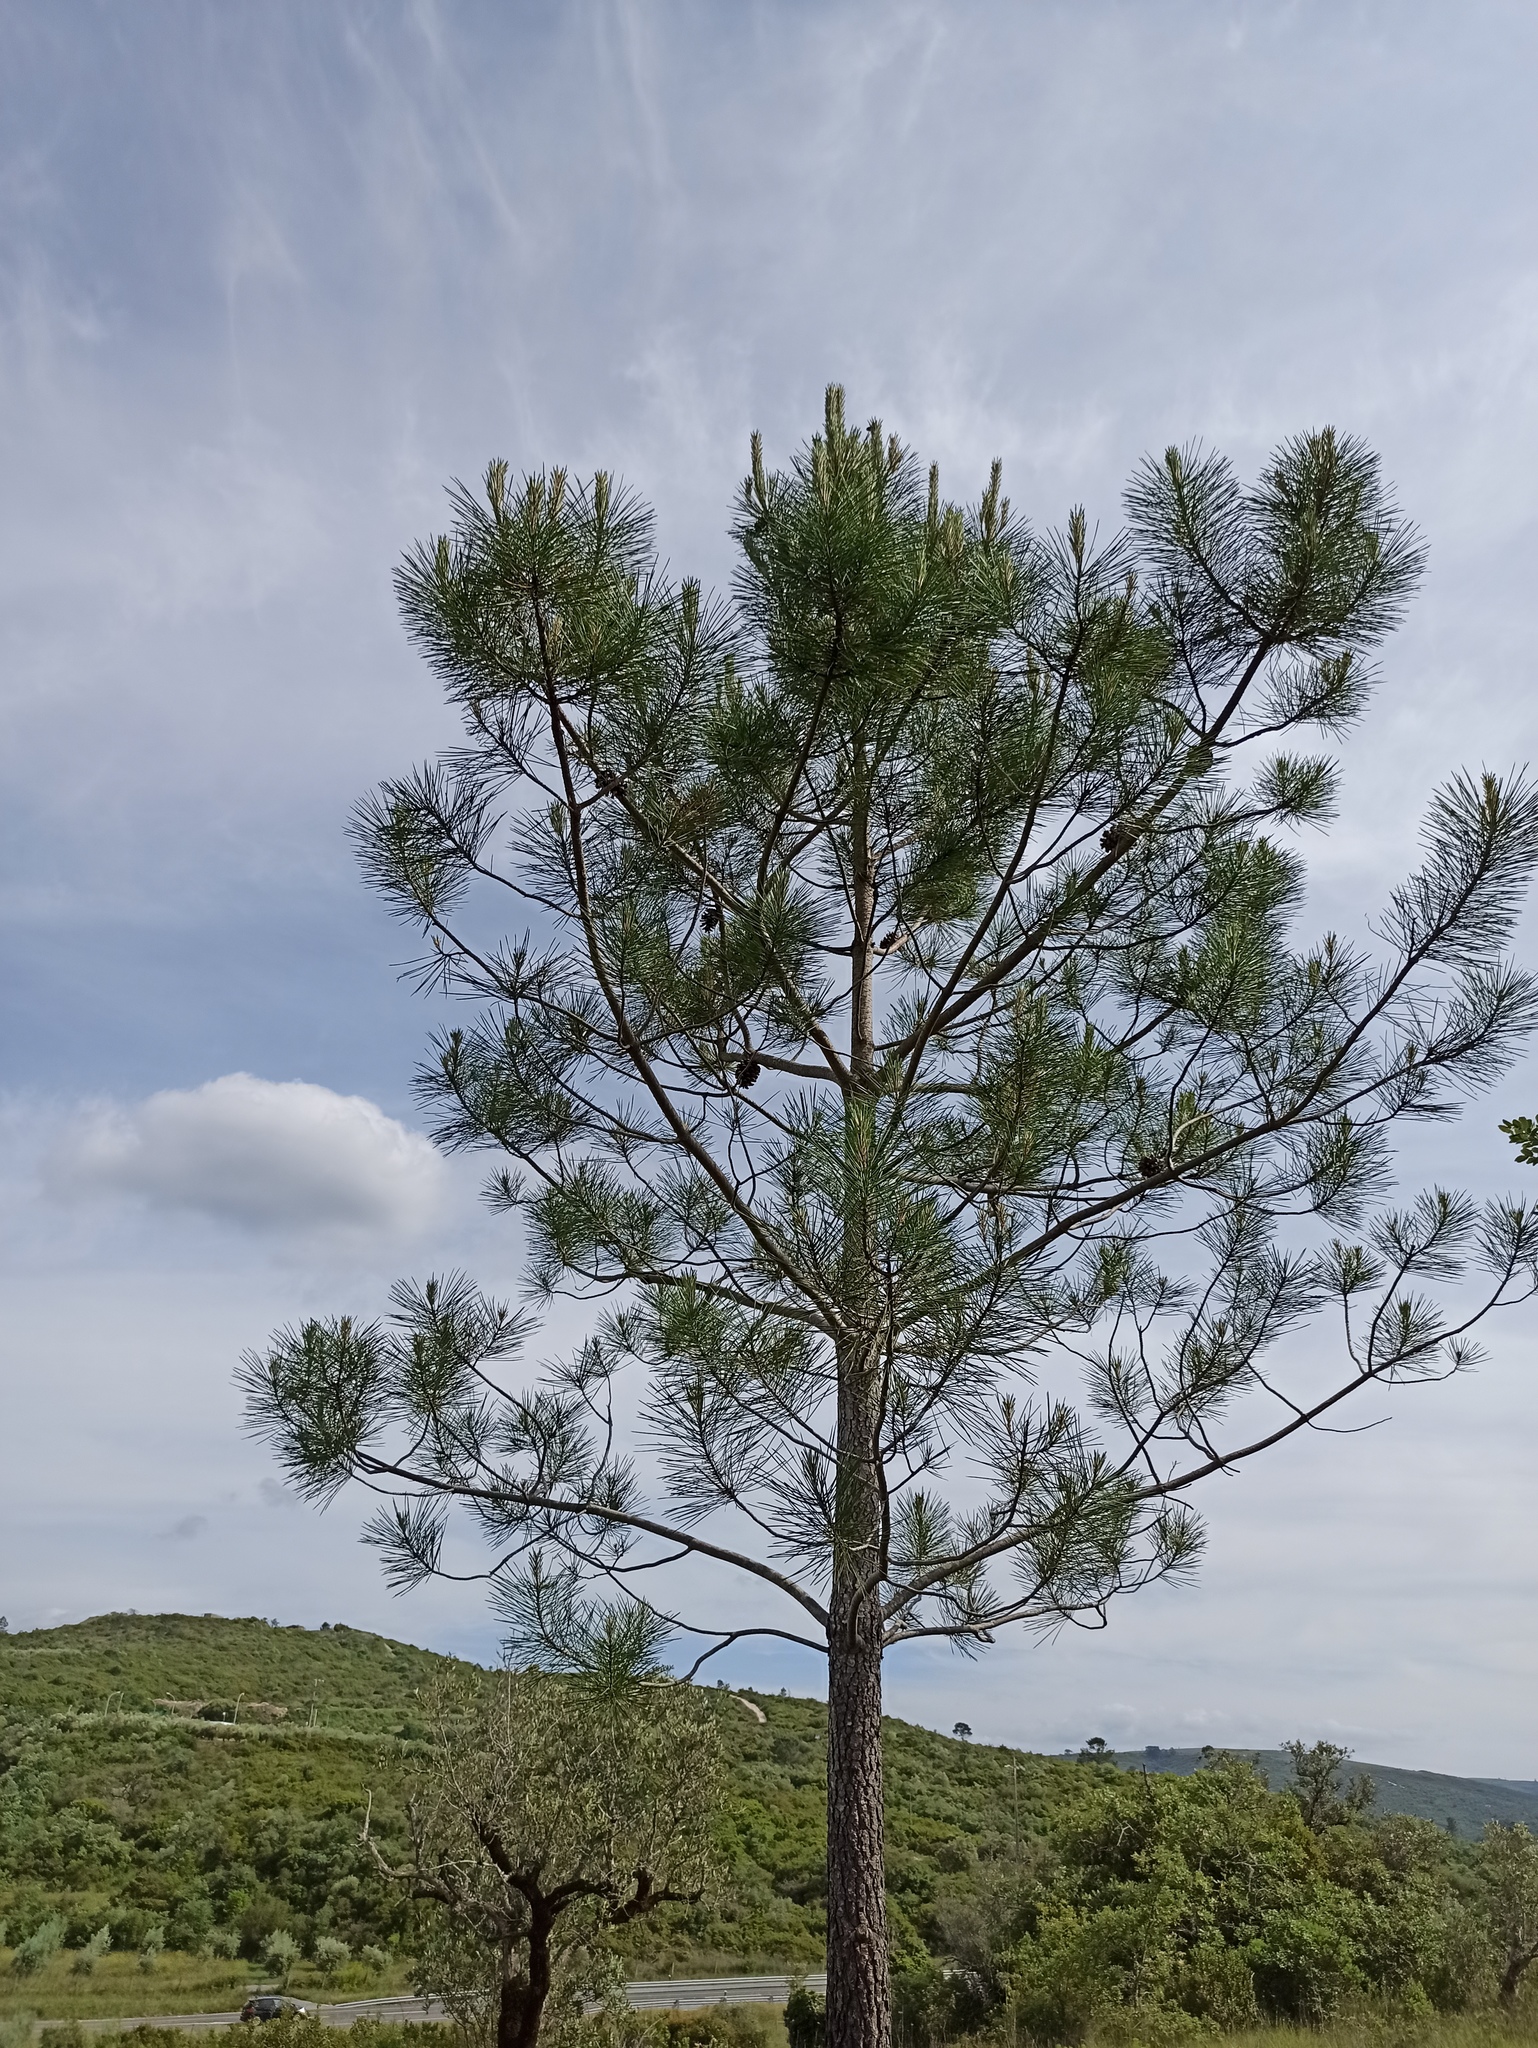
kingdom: Plantae
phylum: Tracheophyta
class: Pinopsida
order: Pinales
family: Pinaceae
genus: Pinus
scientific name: Pinus pinaster
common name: Maritime pine
